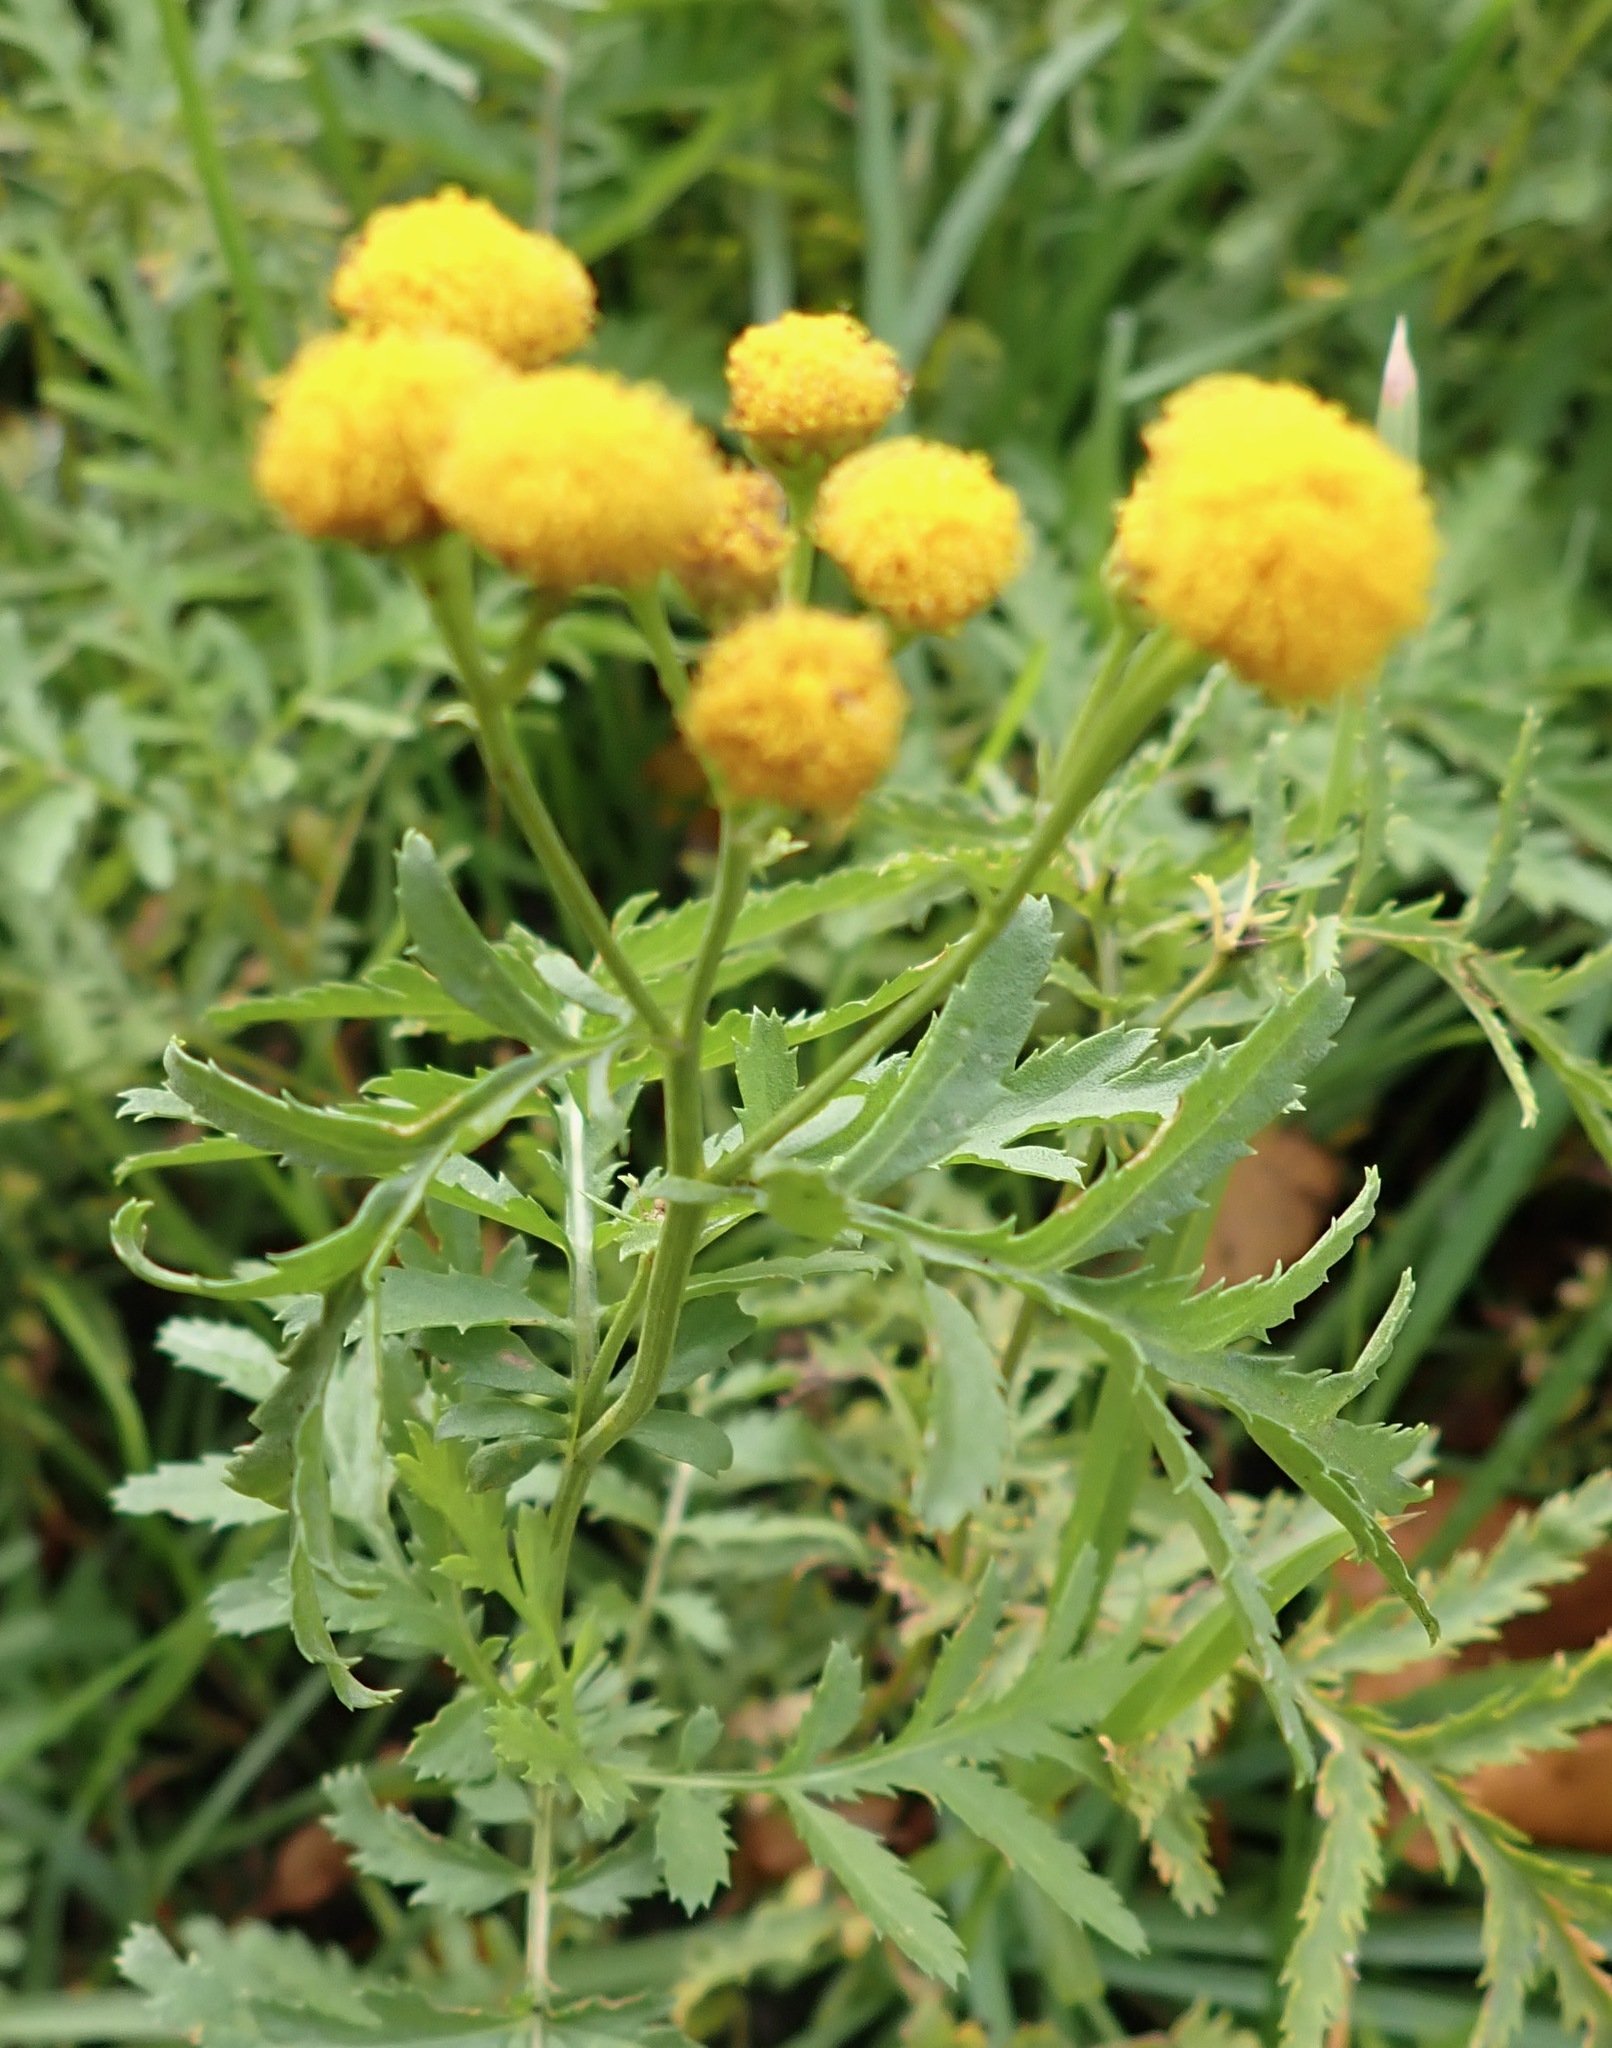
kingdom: Plantae
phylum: Tracheophyta
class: Magnoliopsida
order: Asterales
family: Asteraceae
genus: Tanacetum
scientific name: Tanacetum vulgare
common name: Common tansy
